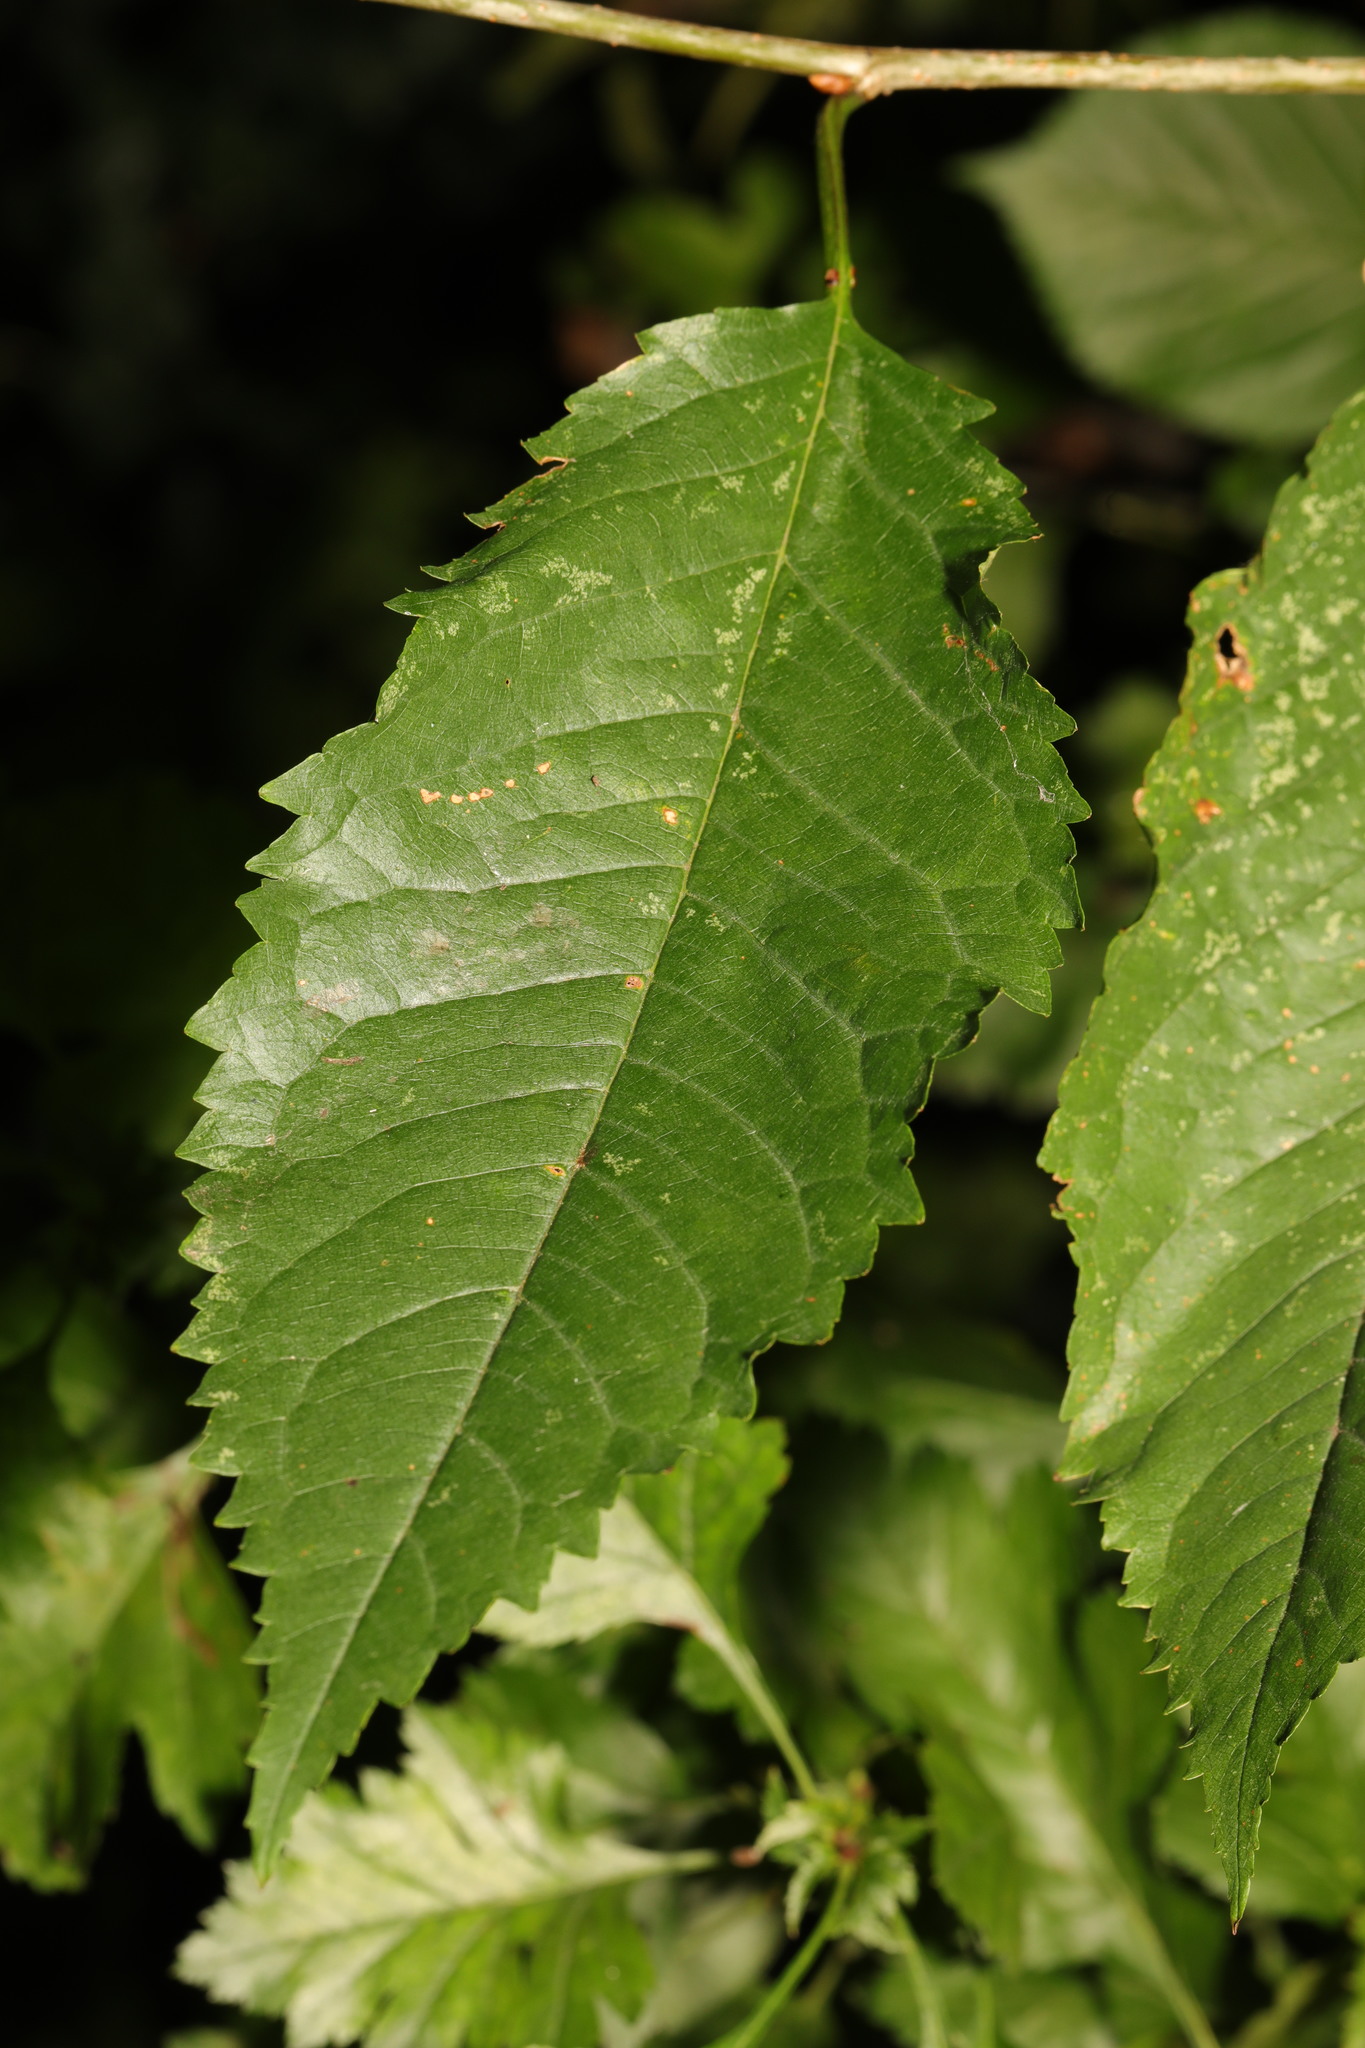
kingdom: Plantae
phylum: Tracheophyta
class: Magnoliopsida
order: Rosales
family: Rosaceae
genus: Prunus
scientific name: Prunus avium
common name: Sweet cherry
